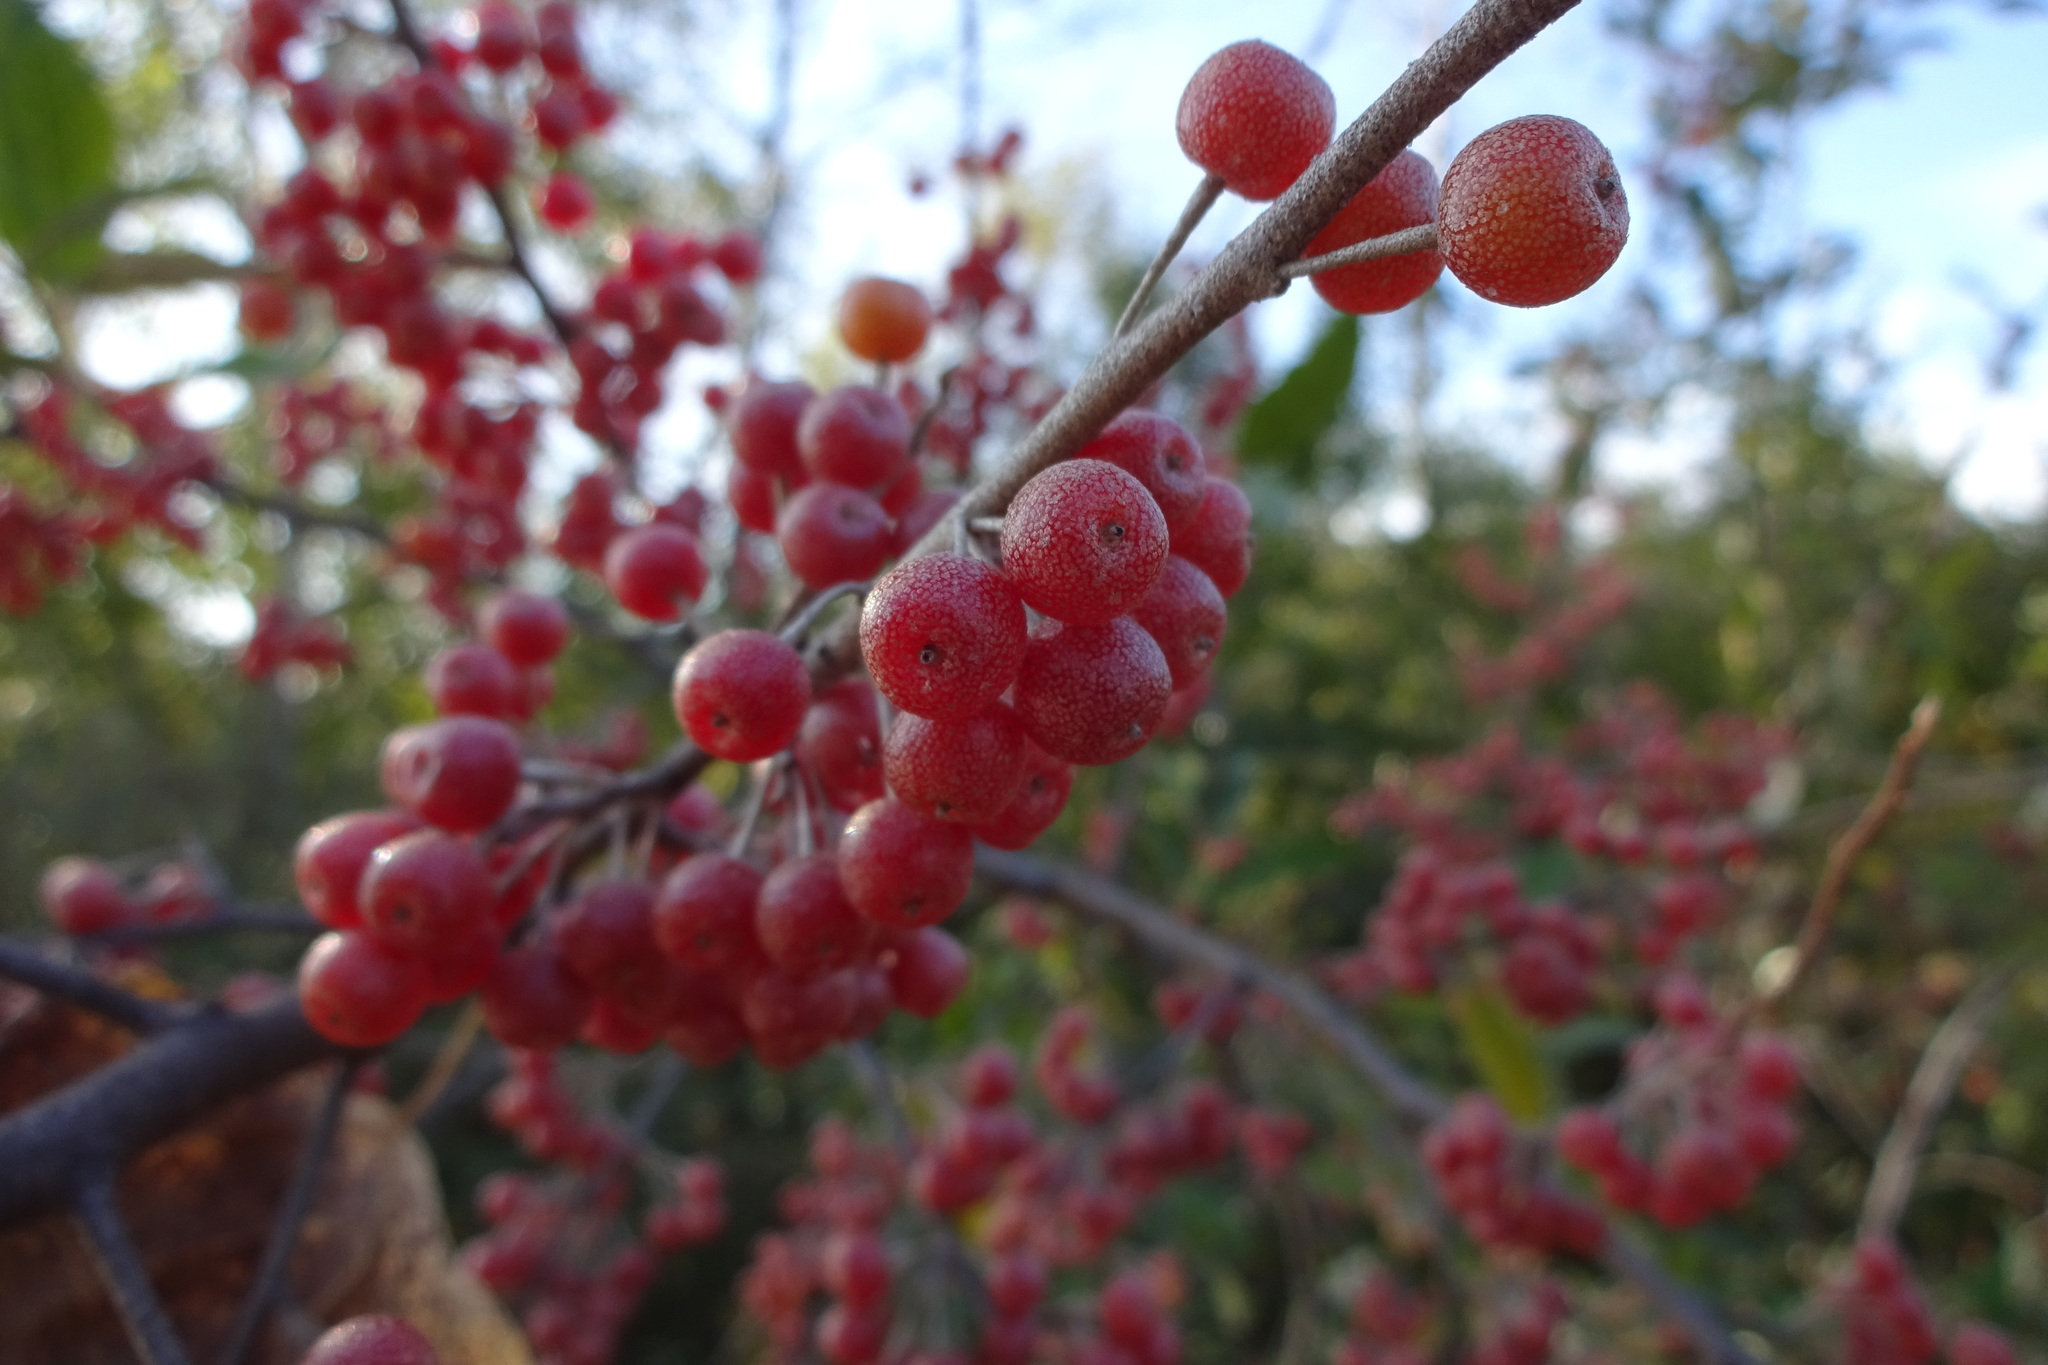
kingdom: Plantae
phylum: Tracheophyta
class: Magnoliopsida
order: Rosales
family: Elaeagnaceae
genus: Elaeagnus
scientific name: Elaeagnus umbellata
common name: Autumn olive
